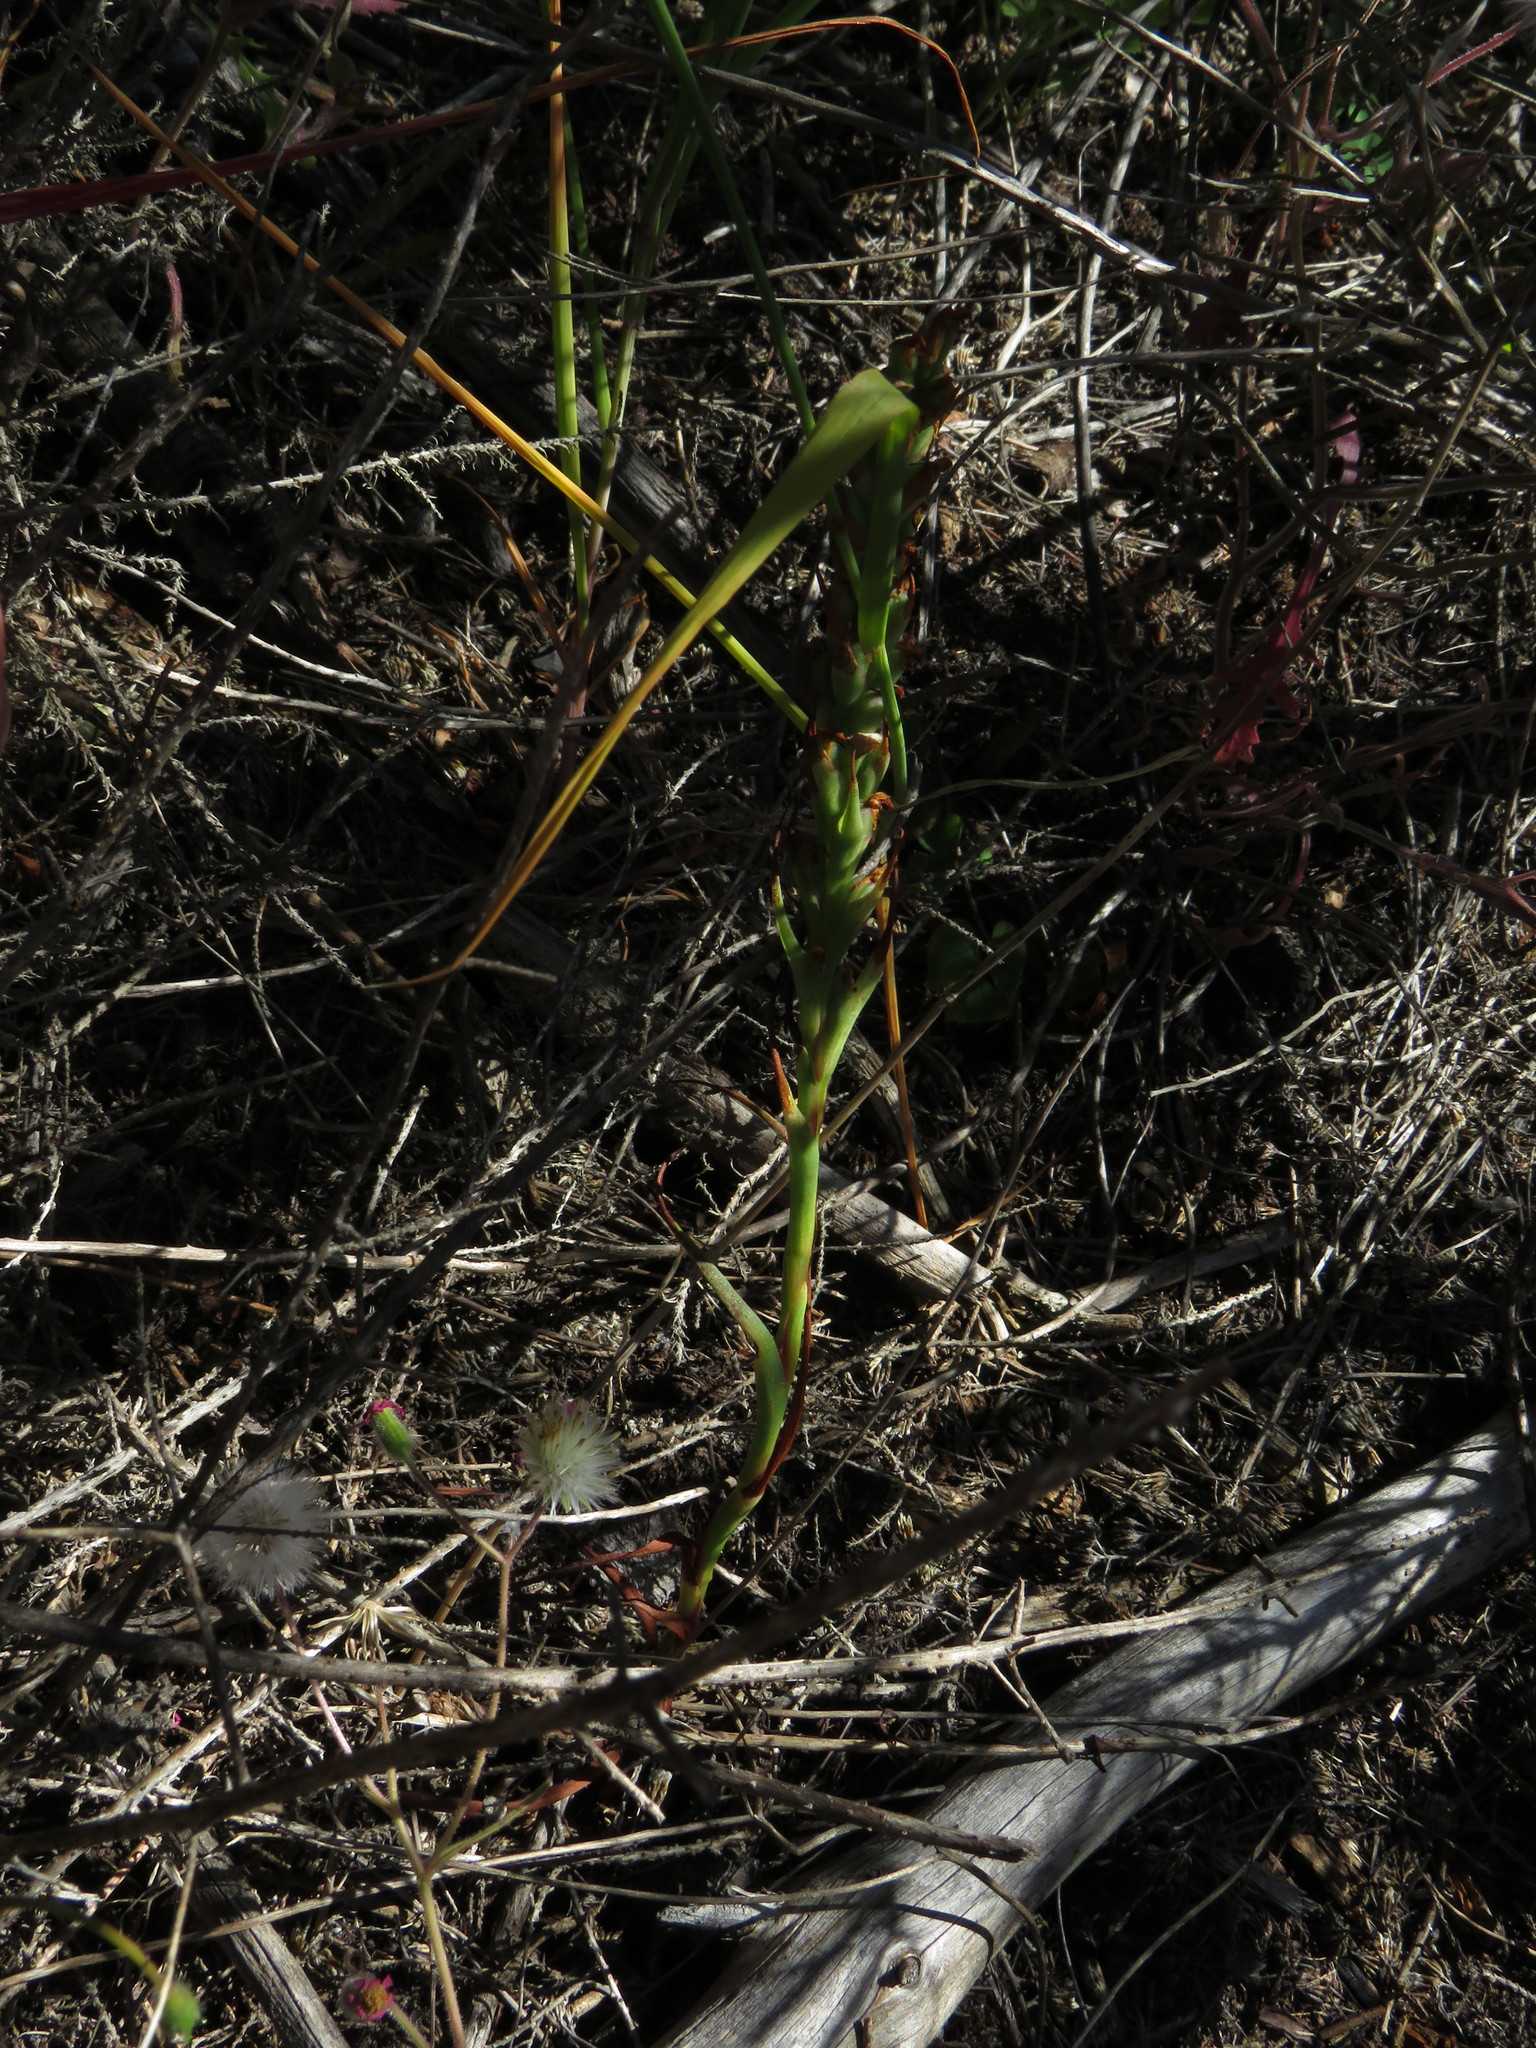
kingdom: Plantae
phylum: Tracheophyta
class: Liliopsida
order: Asparagales
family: Orchidaceae
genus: Disa
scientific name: Disa bracteata
